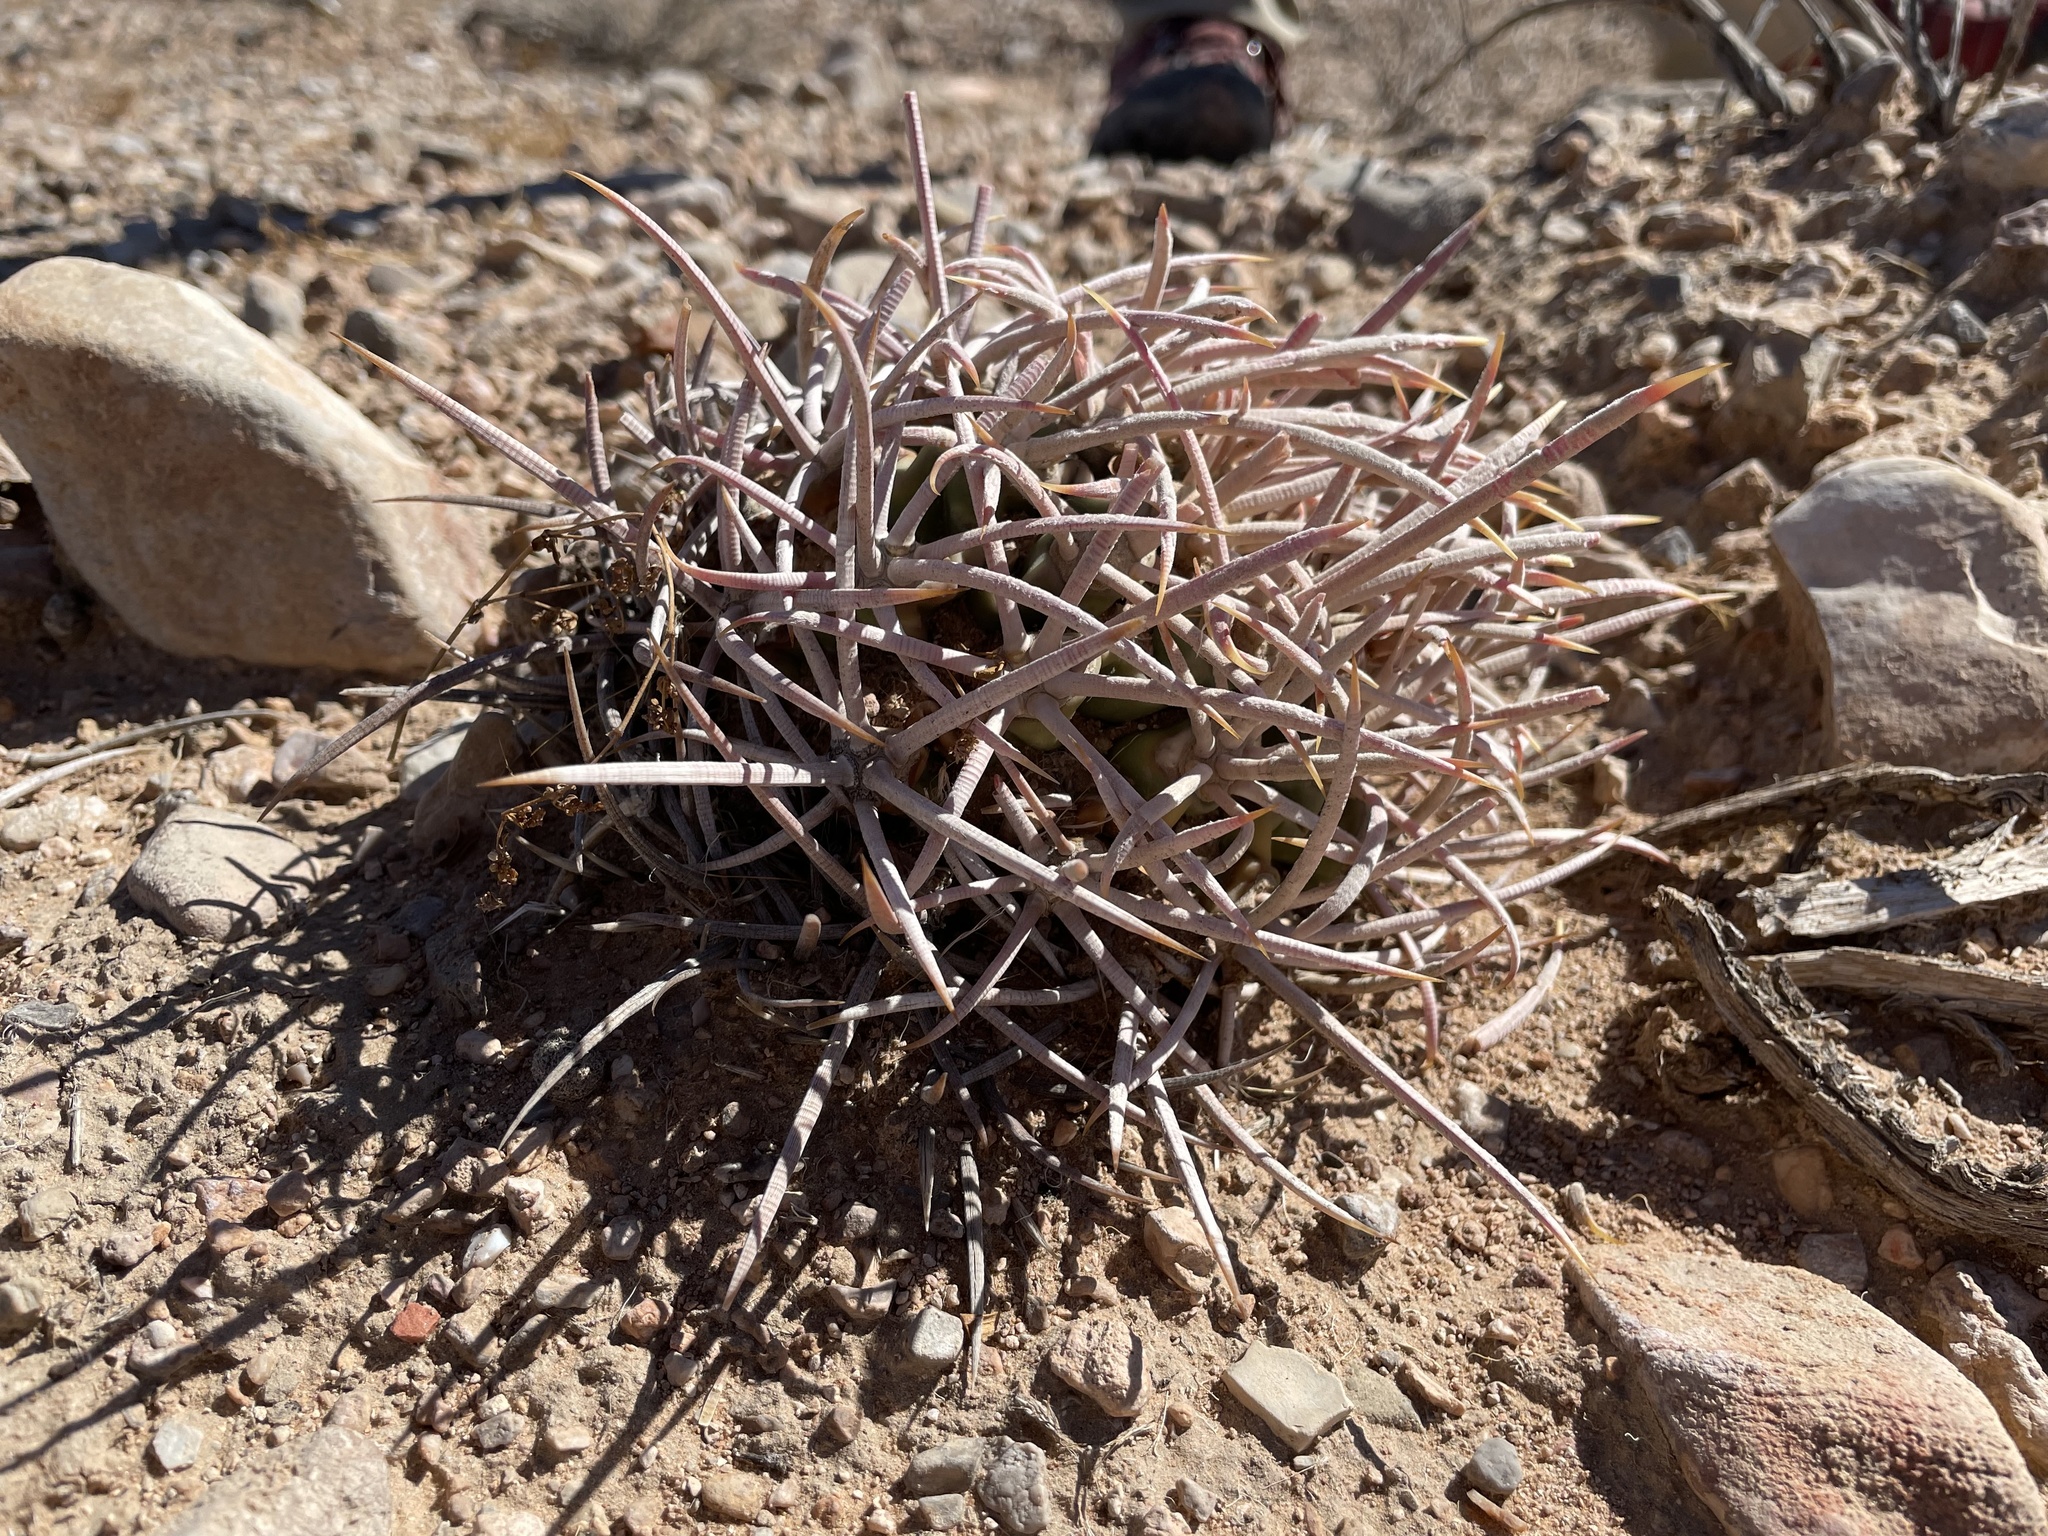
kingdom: Plantae
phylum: Tracheophyta
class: Magnoliopsida
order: Caryophyllales
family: Cactaceae
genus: Echinocactus
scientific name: Echinocactus polycephalus
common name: Cottontop cactus
